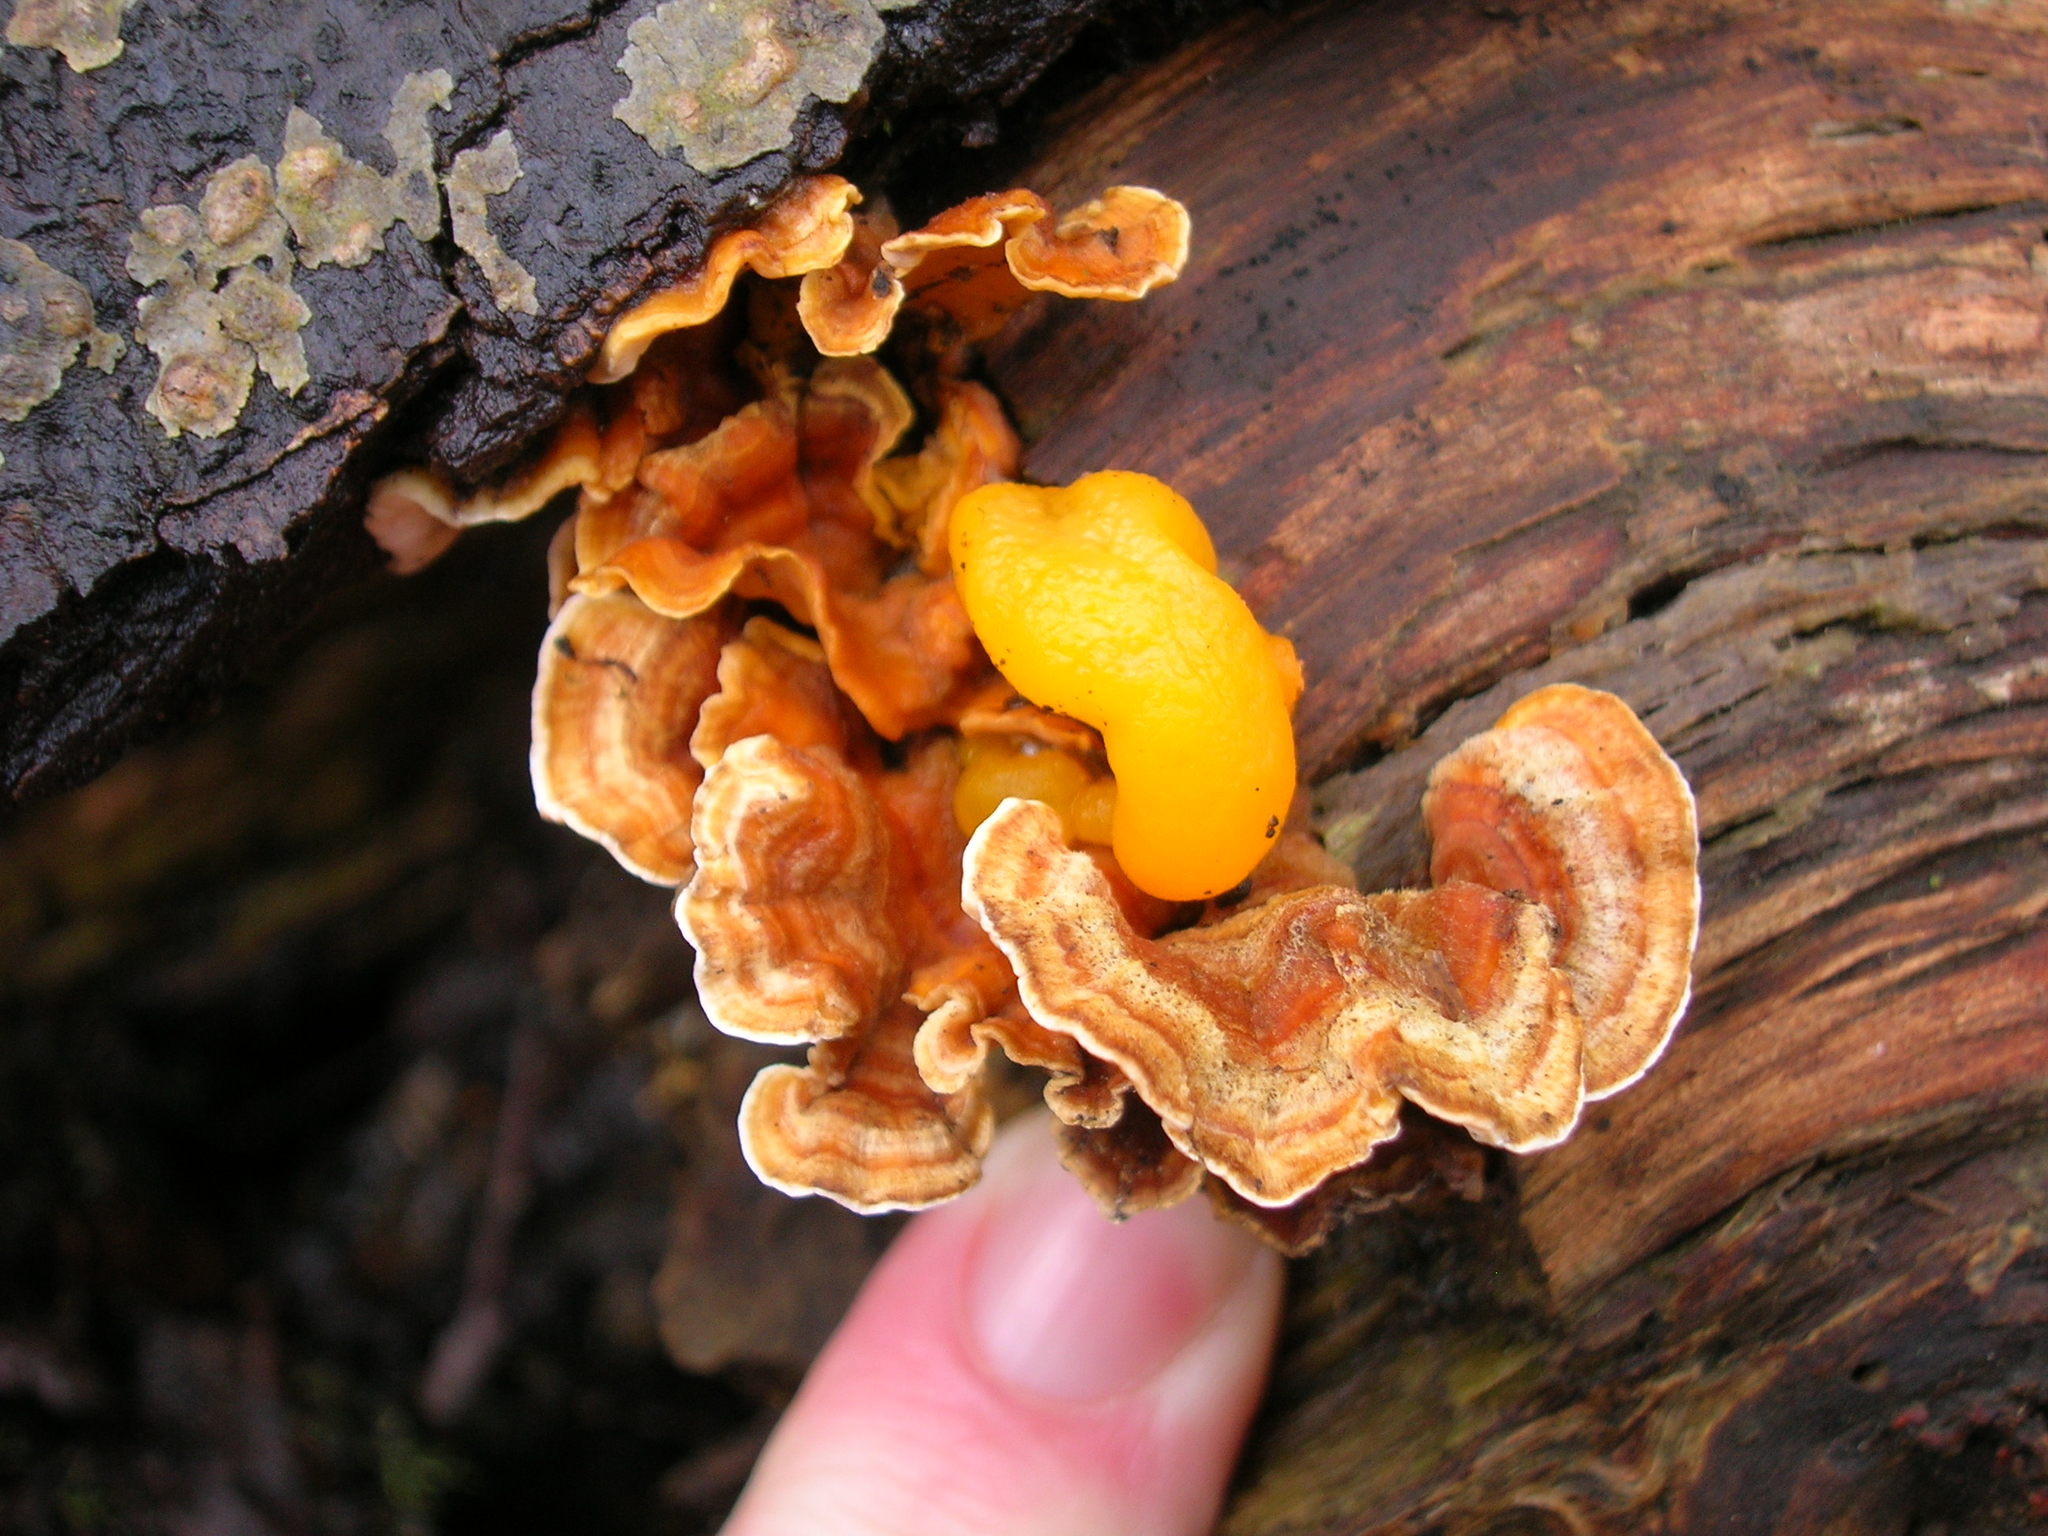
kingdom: Fungi
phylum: Basidiomycota
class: Agaricomycetes
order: Russulales
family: Stereaceae
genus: Stereum
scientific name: Stereum hirsutum
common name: Hairy curtain crust
